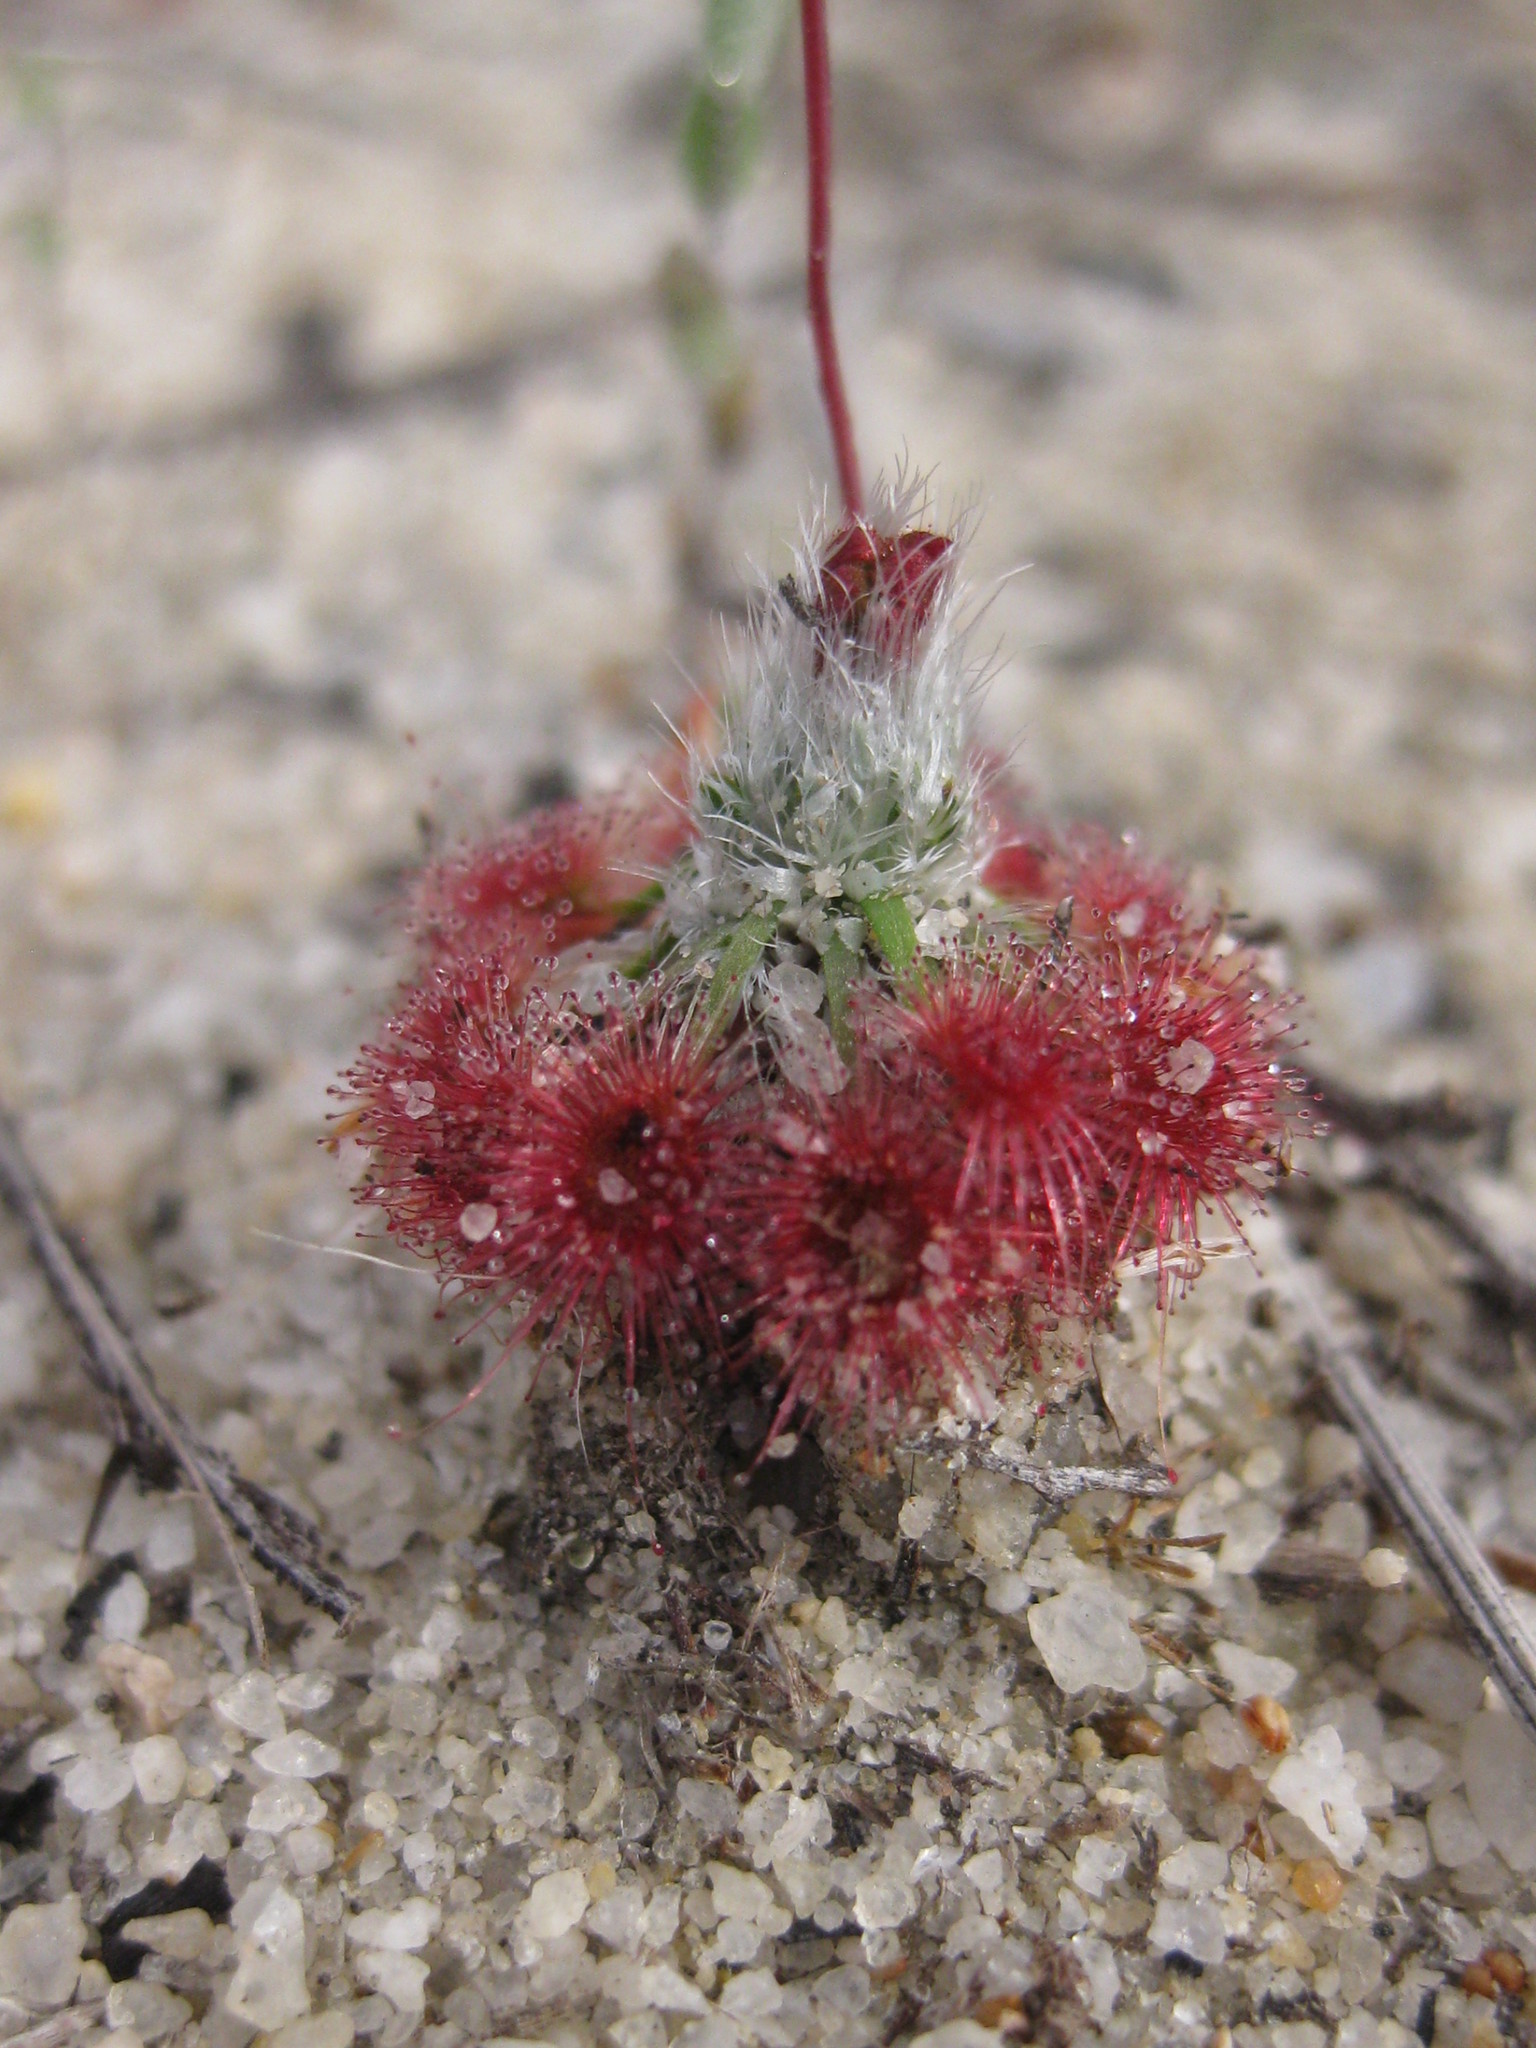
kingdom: Plantae
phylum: Tracheophyta
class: Magnoliopsida
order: Caryophyllales
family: Droseraceae
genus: Drosera
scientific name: Drosera eneabba
